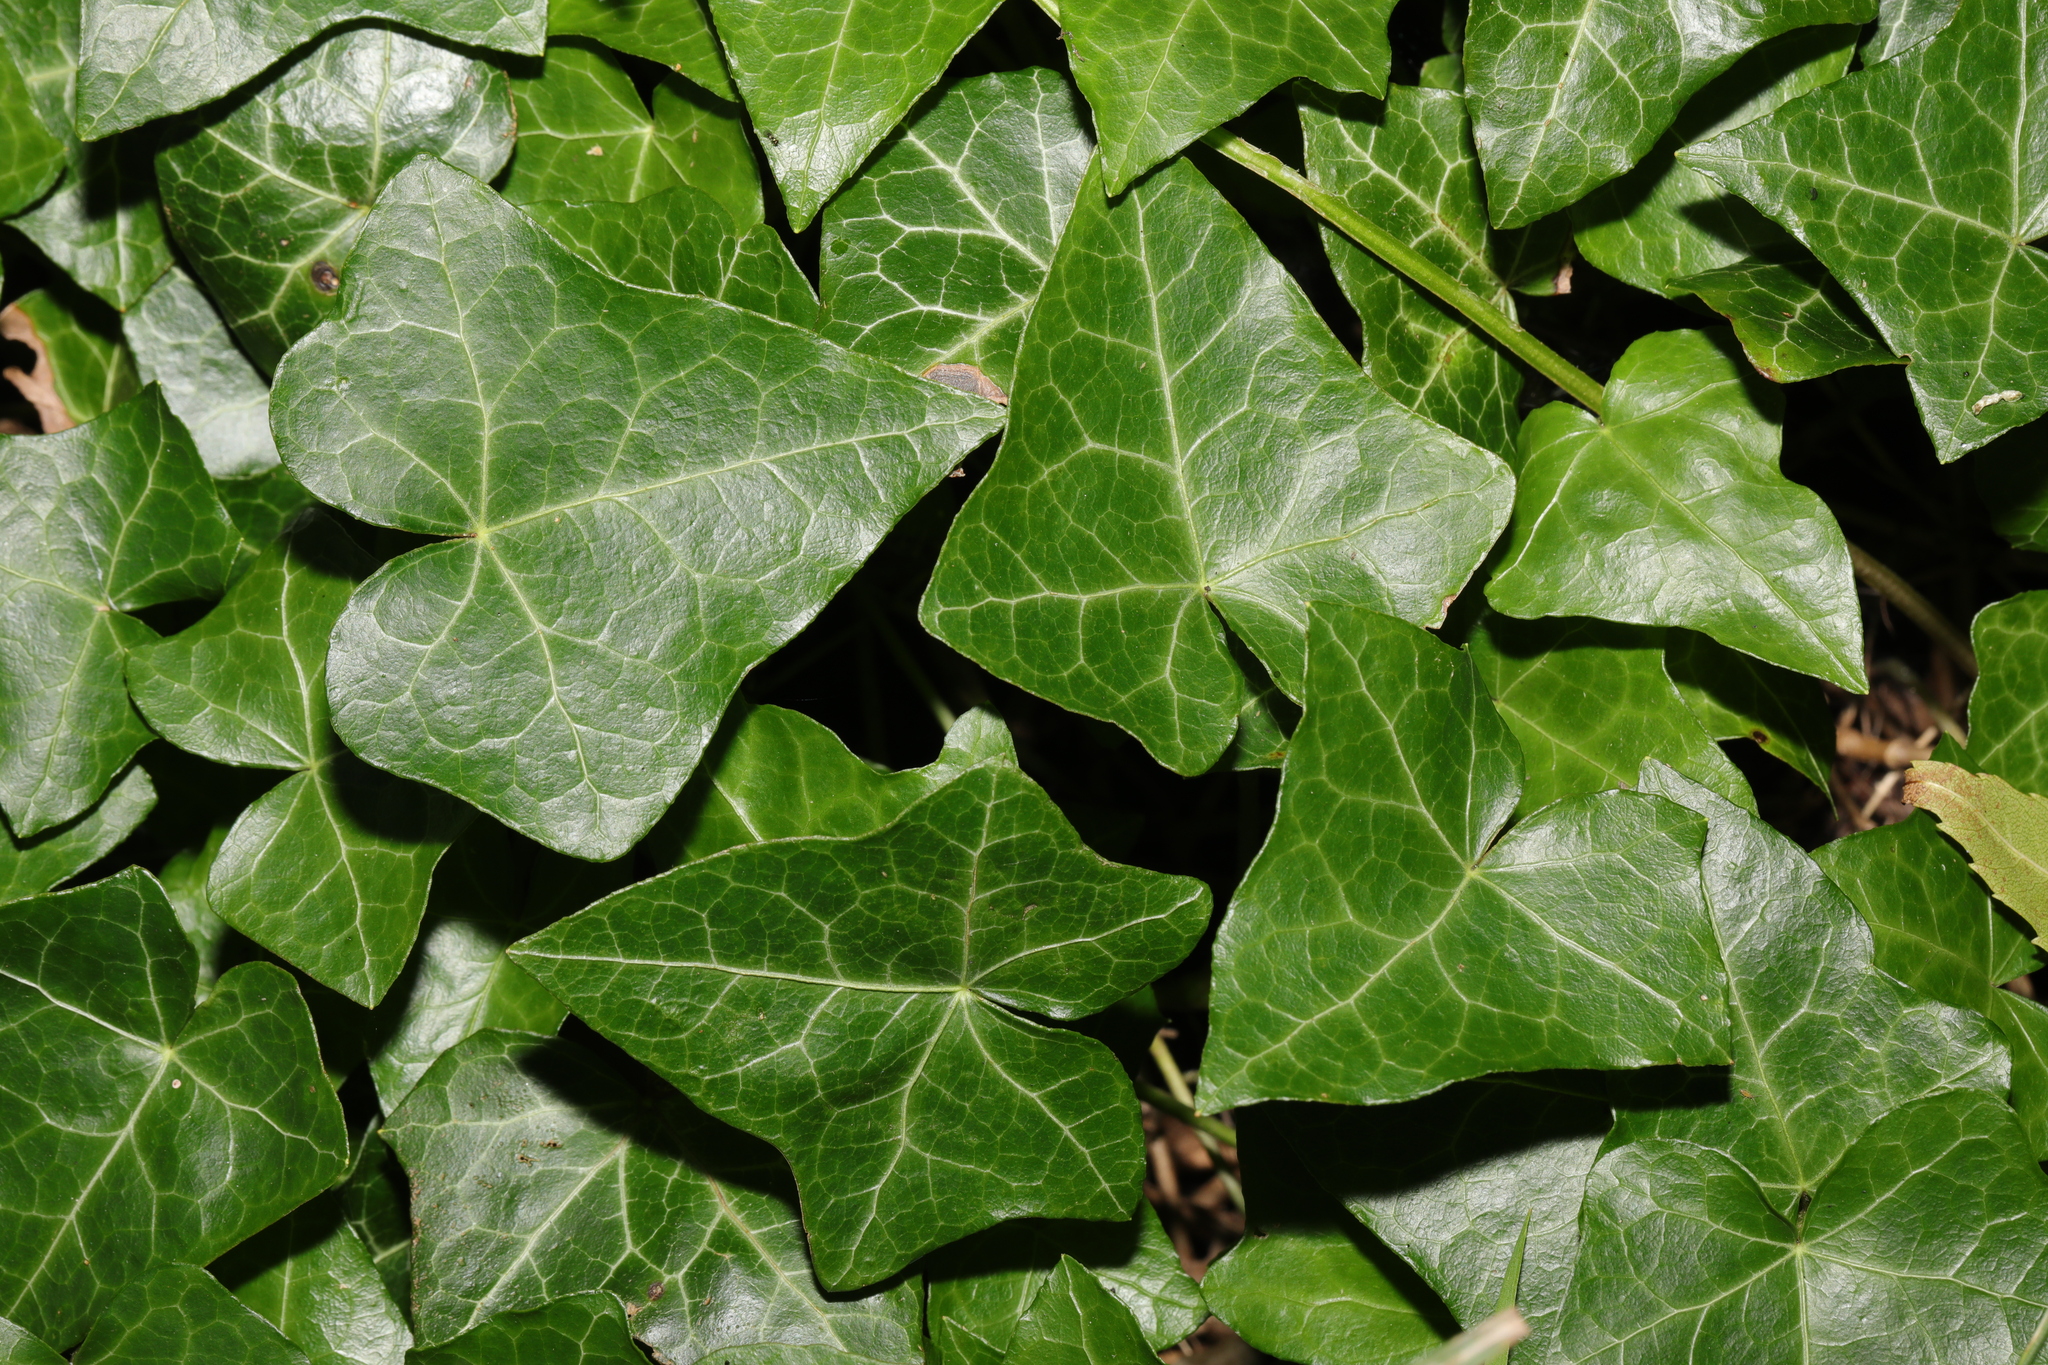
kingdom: Plantae
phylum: Tracheophyta
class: Magnoliopsida
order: Apiales
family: Araliaceae
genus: Hedera
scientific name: Hedera helix
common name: Ivy
